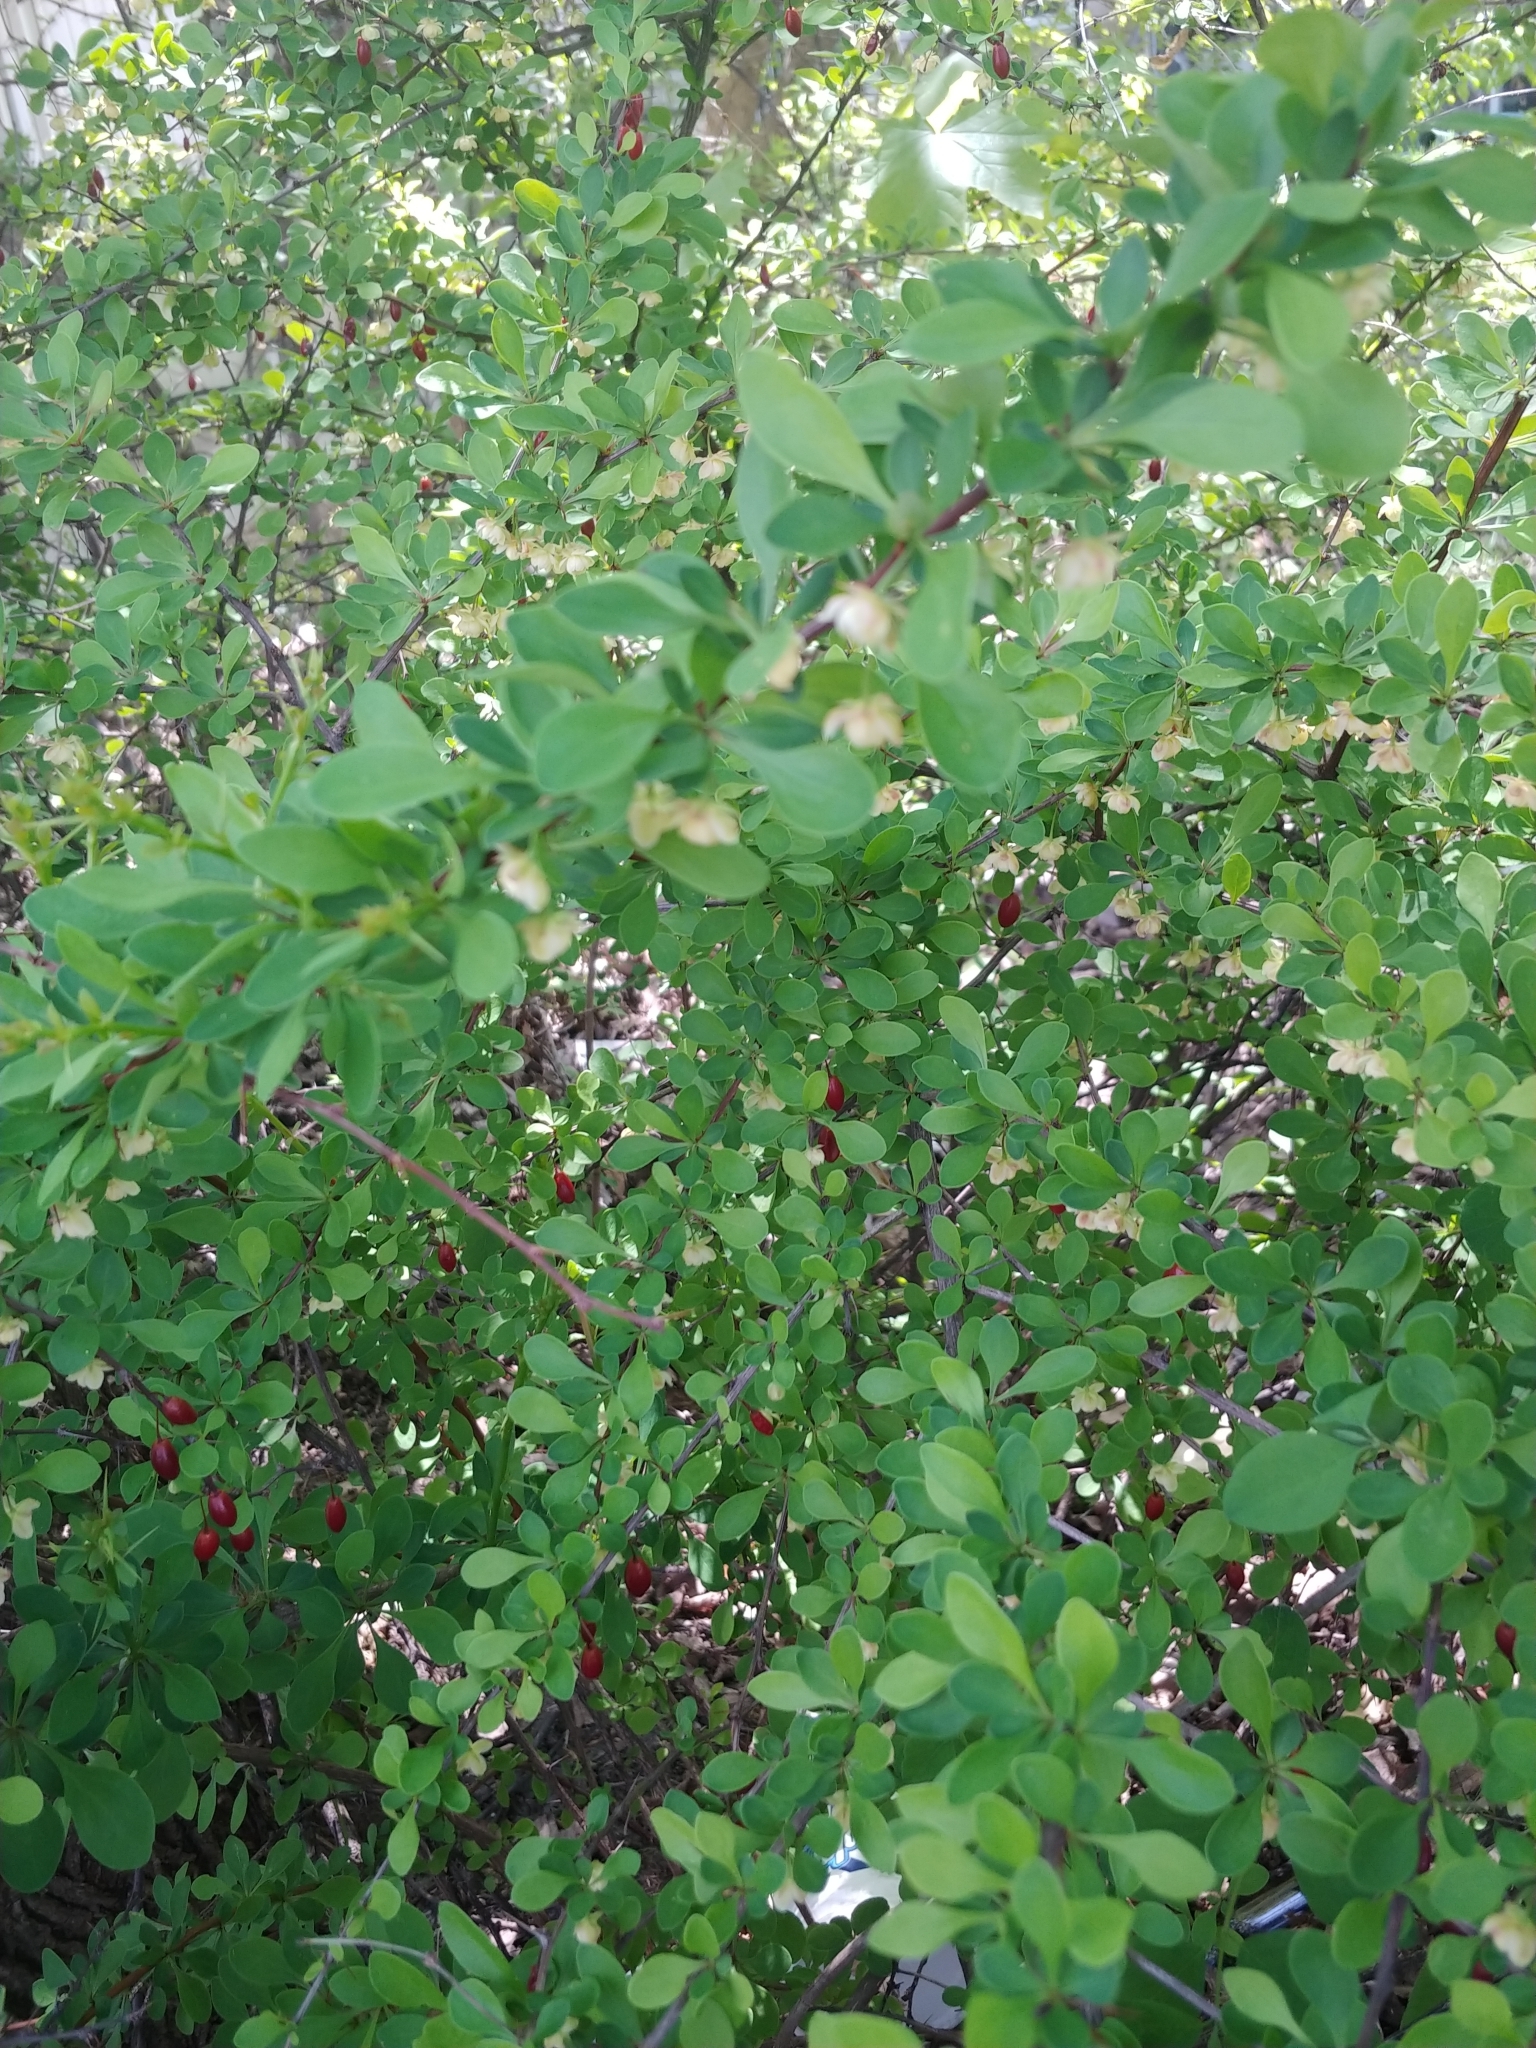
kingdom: Plantae
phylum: Tracheophyta
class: Magnoliopsida
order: Ranunculales
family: Berberidaceae
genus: Berberis
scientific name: Berberis thunbergii
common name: Japanese barberry
